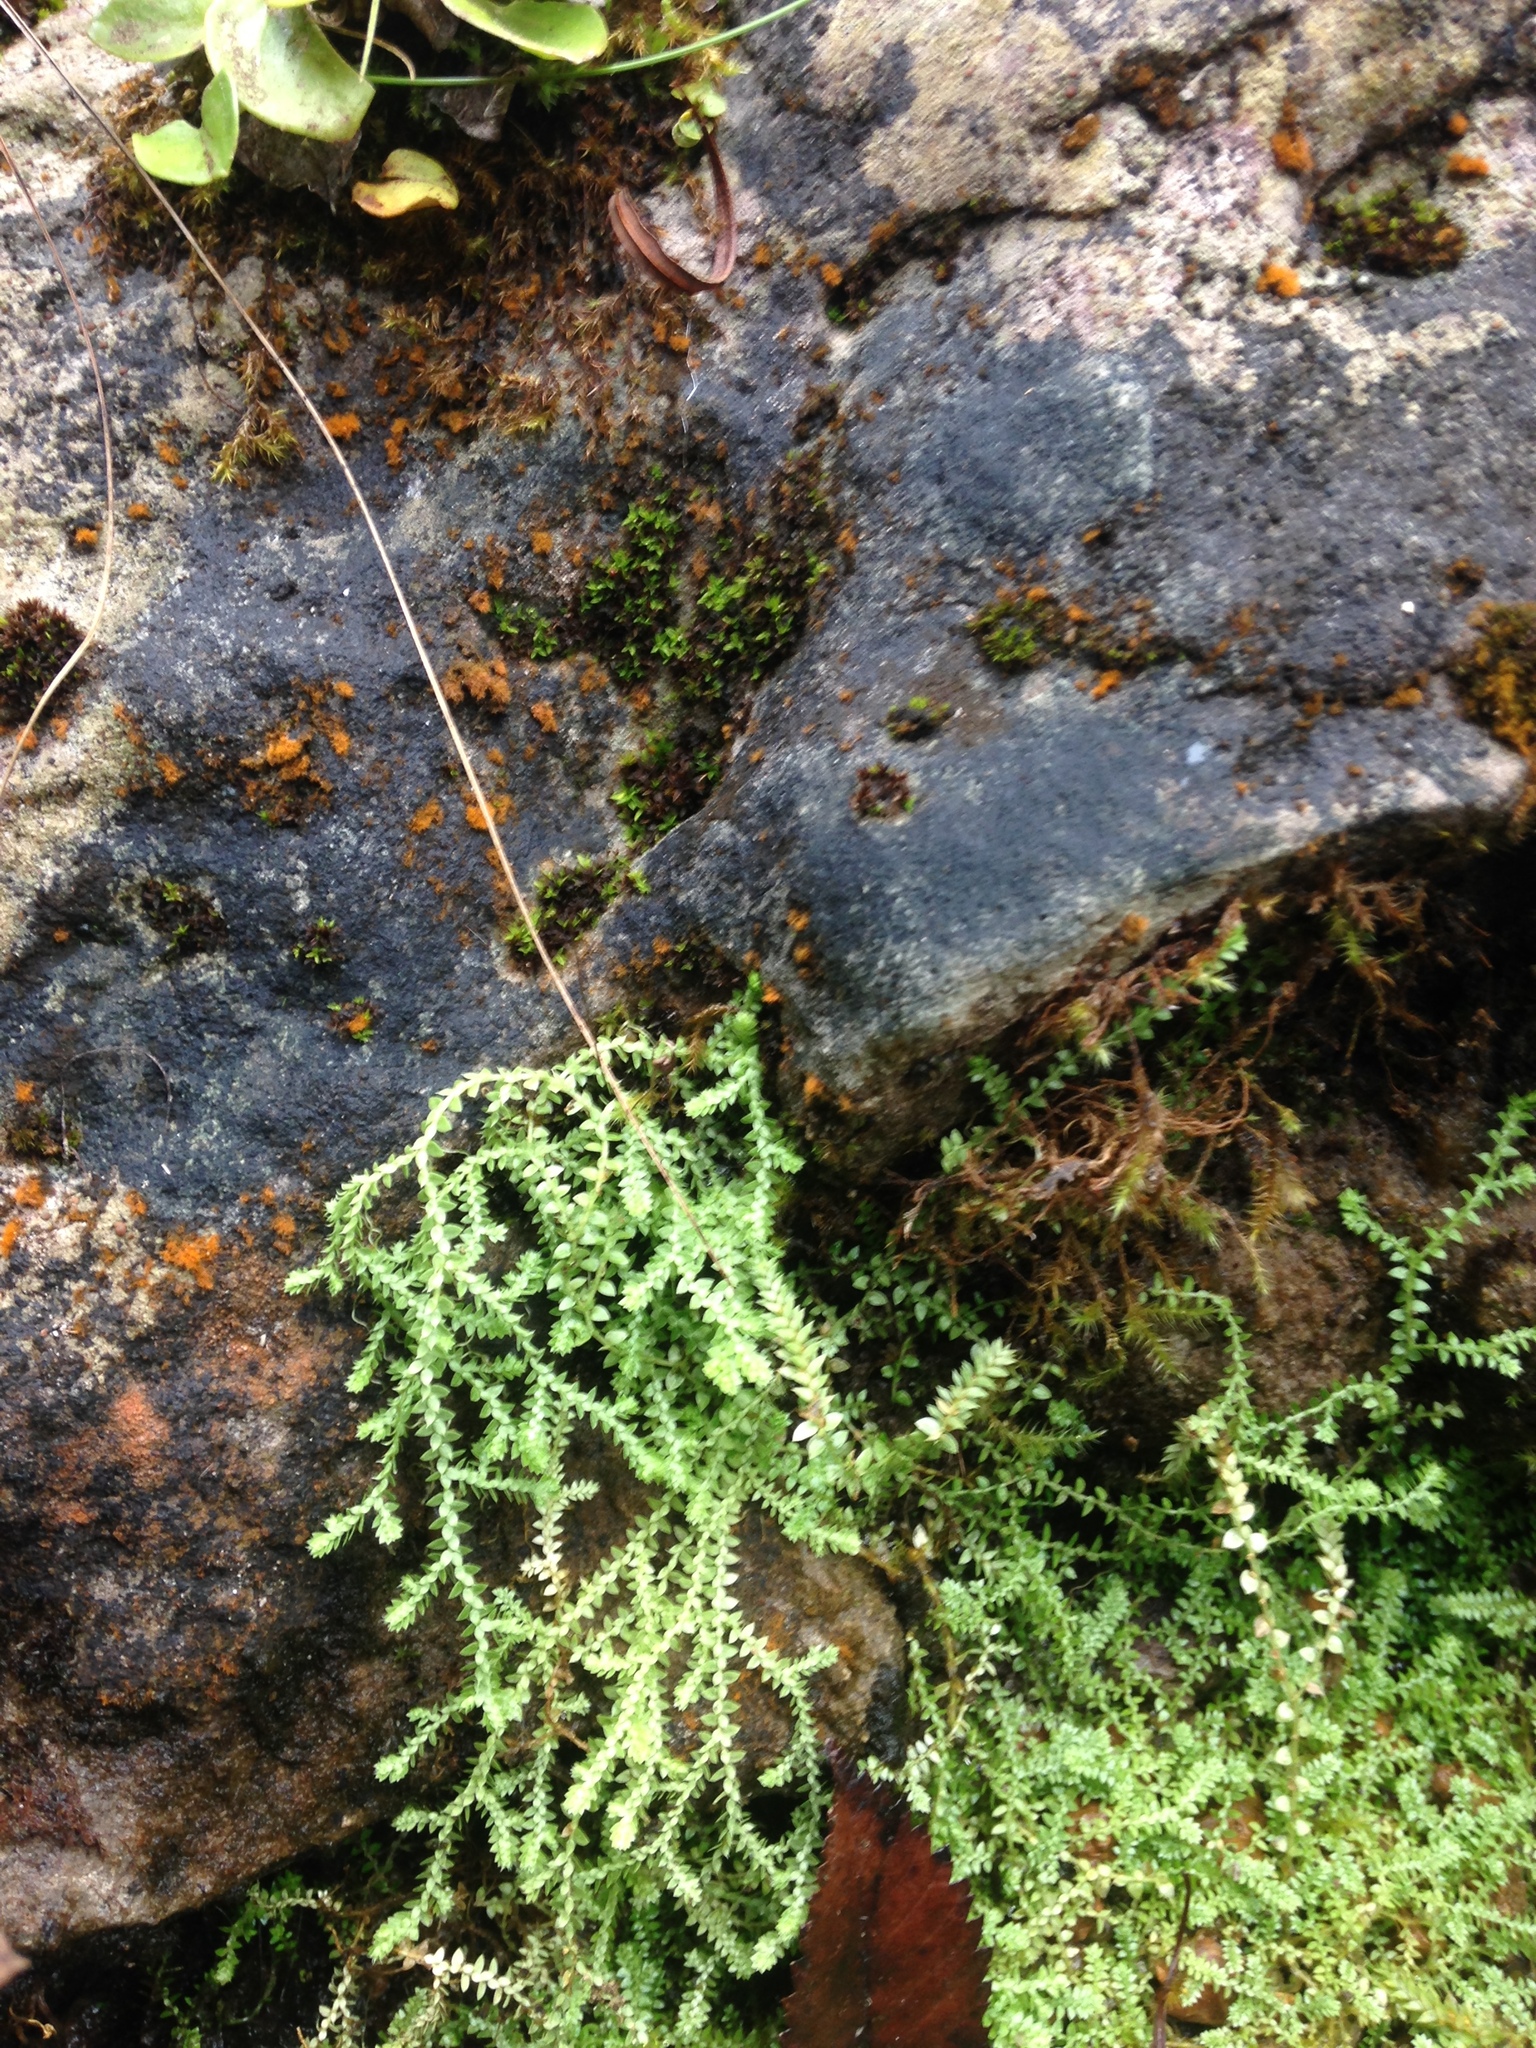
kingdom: Plantae
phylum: Tracheophyta
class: Lycopodiopsida
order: Selaginellales
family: Selaginellaceae
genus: Selaginella
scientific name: Selaginella eclipes
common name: Buck's meadow spikemoss
